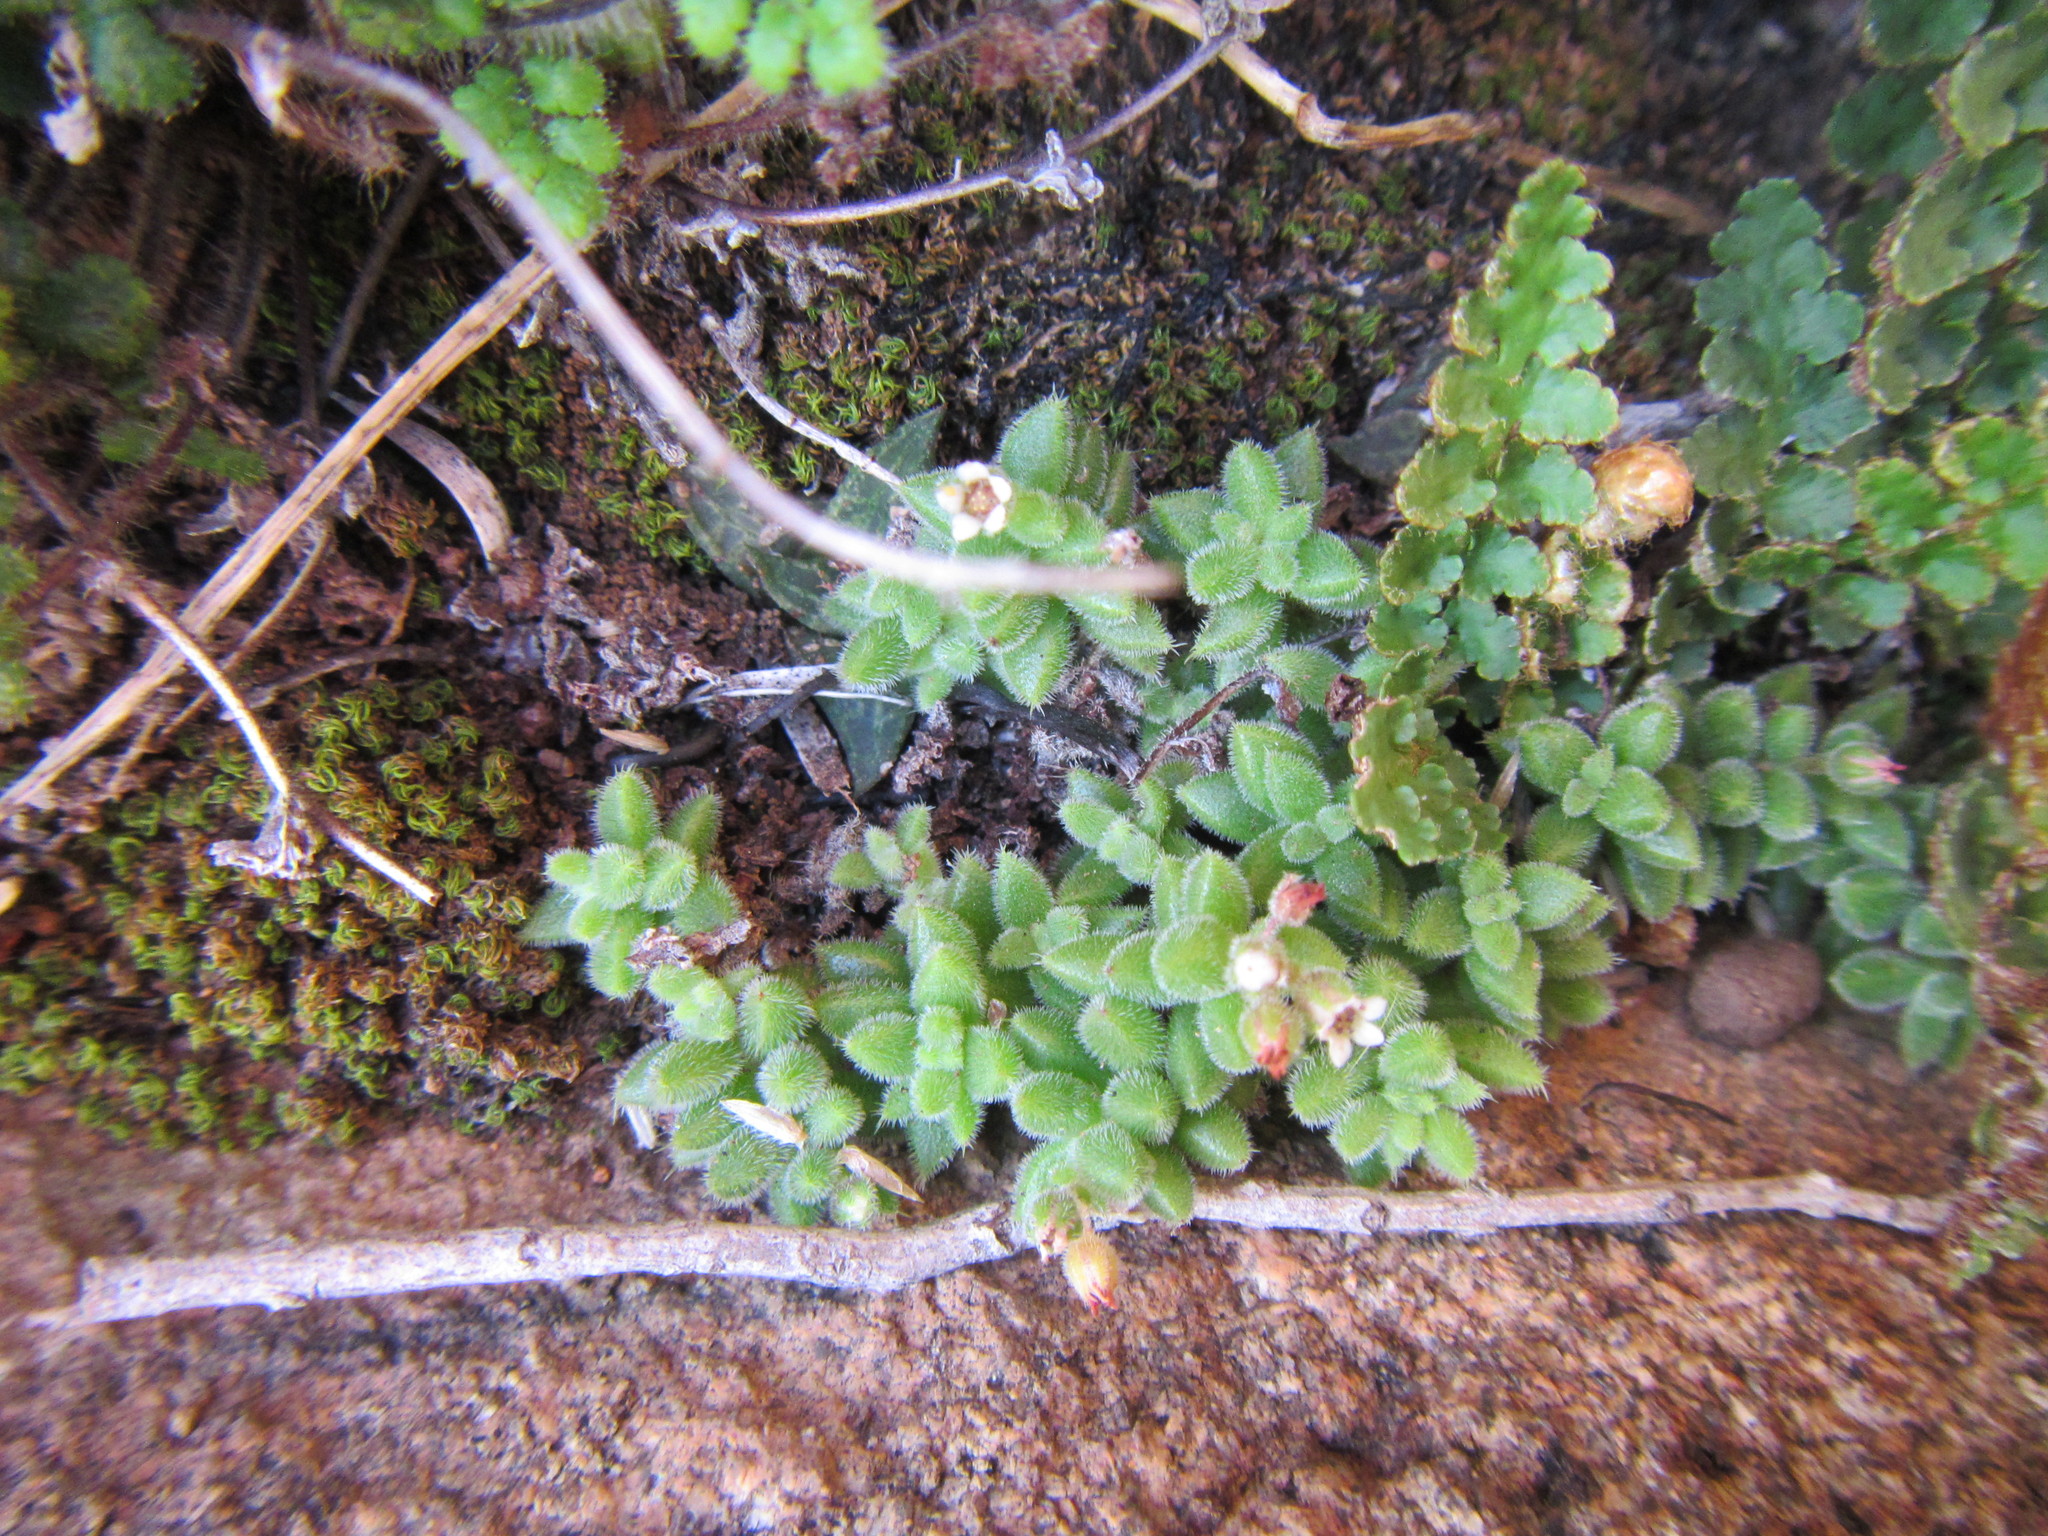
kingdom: Plantae
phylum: Tracheophyta
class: Magnoliopsida
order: Saxifragales
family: Crassulaceae
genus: Crassula
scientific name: Crassula lanuginosa
